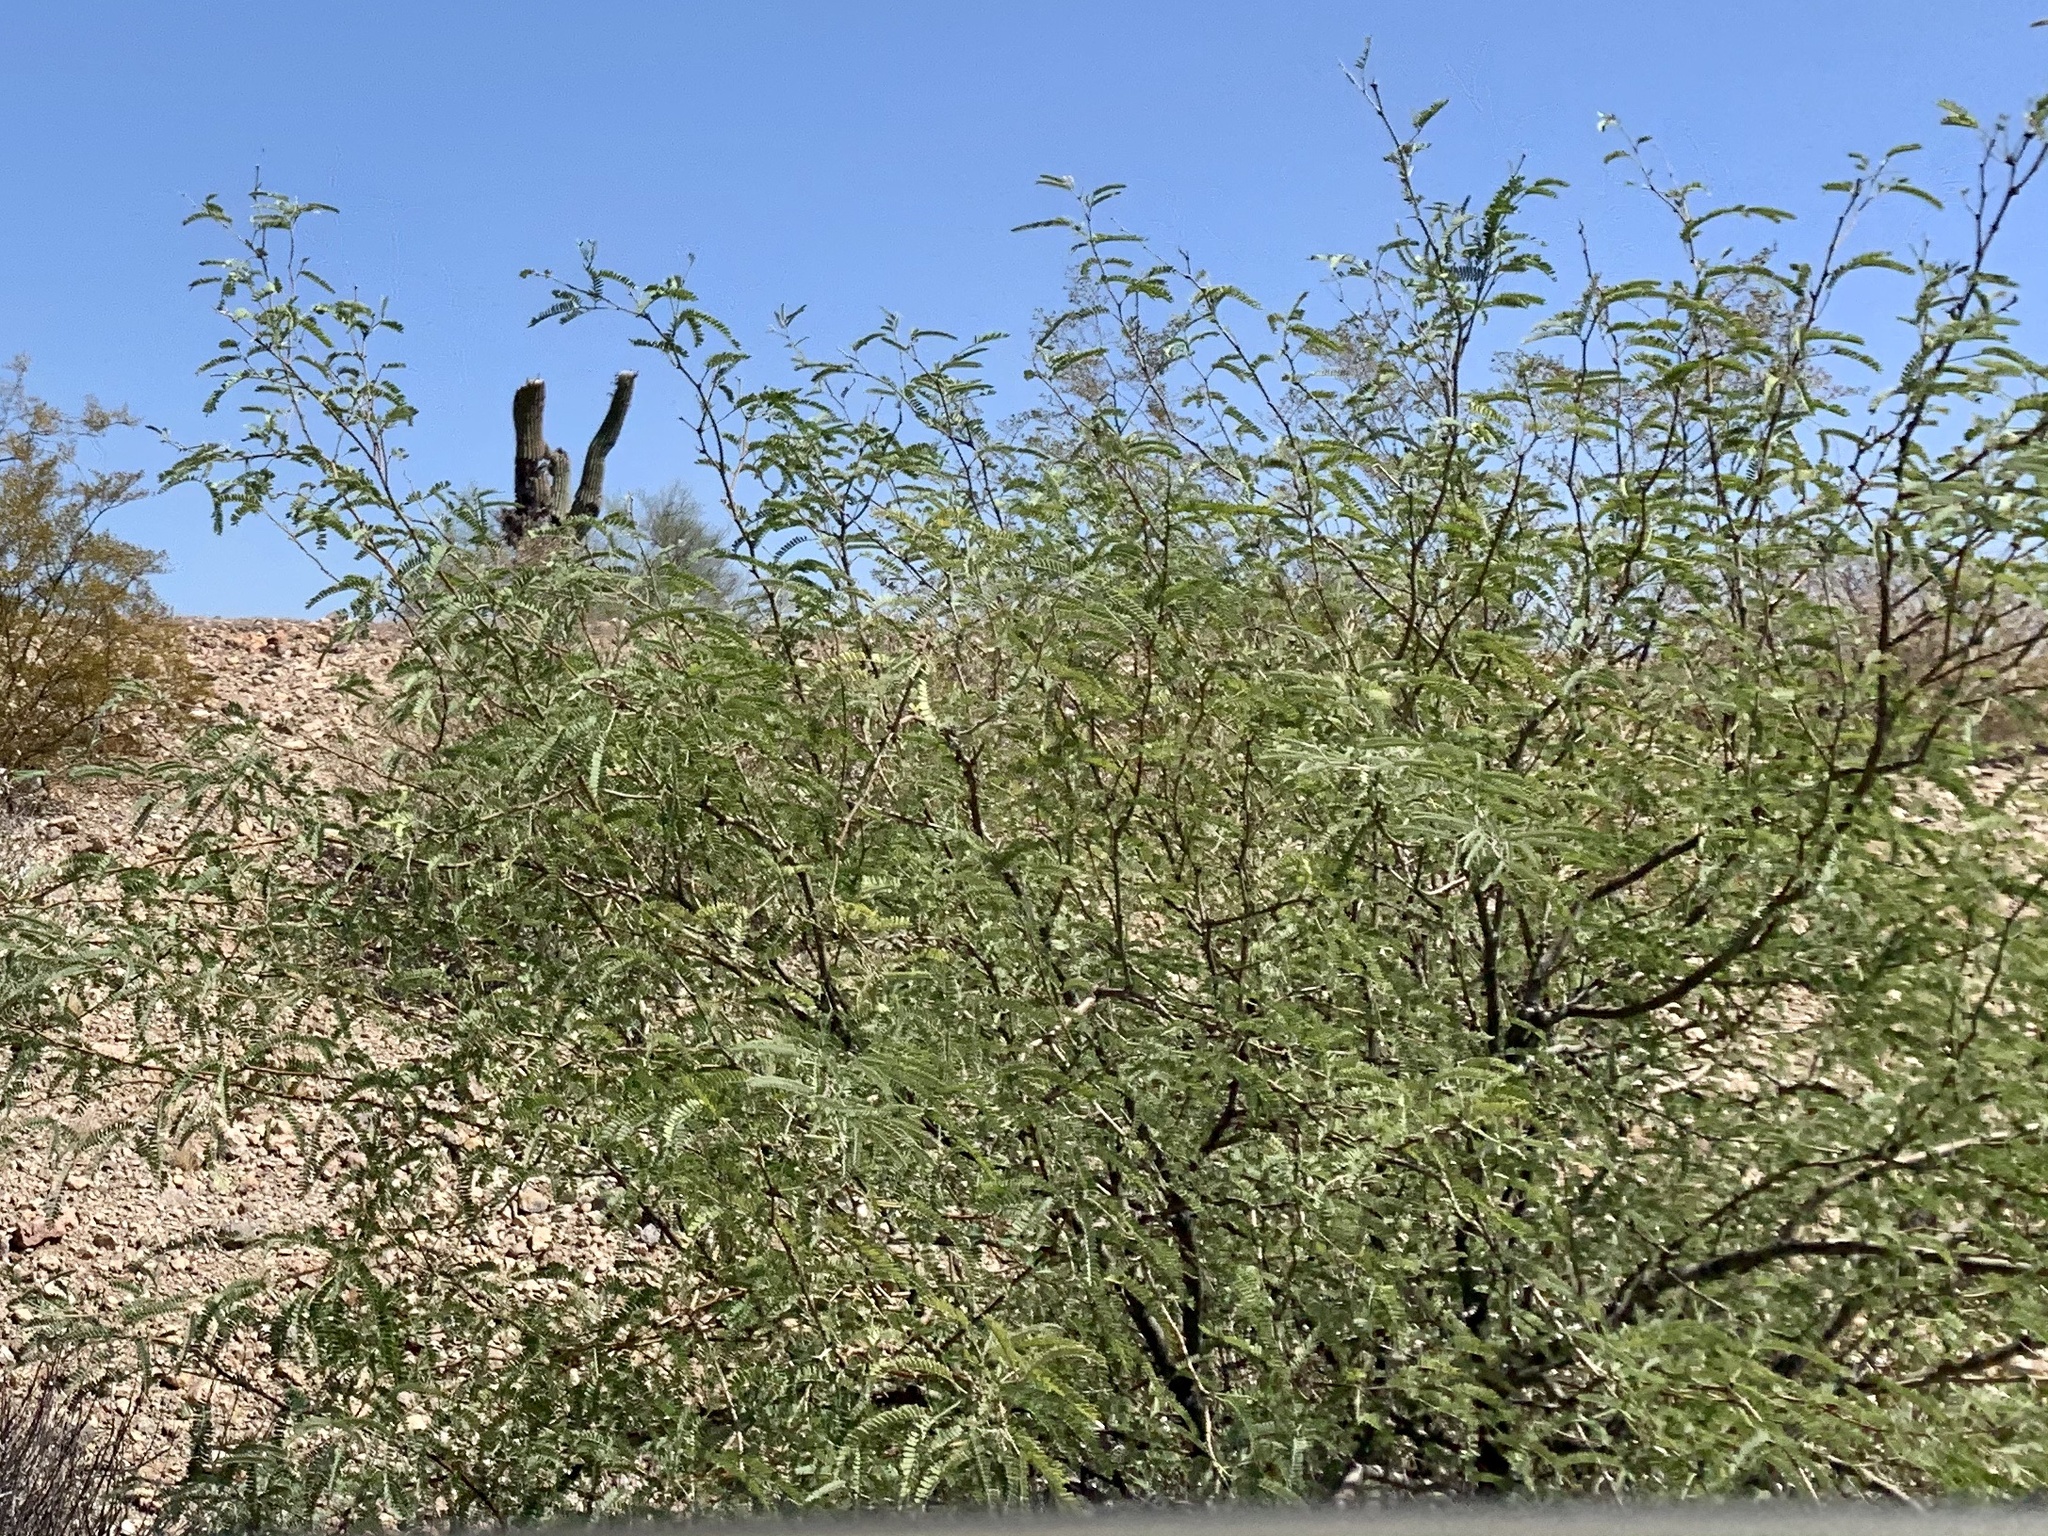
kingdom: Plantae
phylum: Tracheophyta
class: Magnoliopsida
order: Fabales
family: Fabaceae
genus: Prosopis
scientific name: Prosopis velutina
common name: Velvet mesquite
